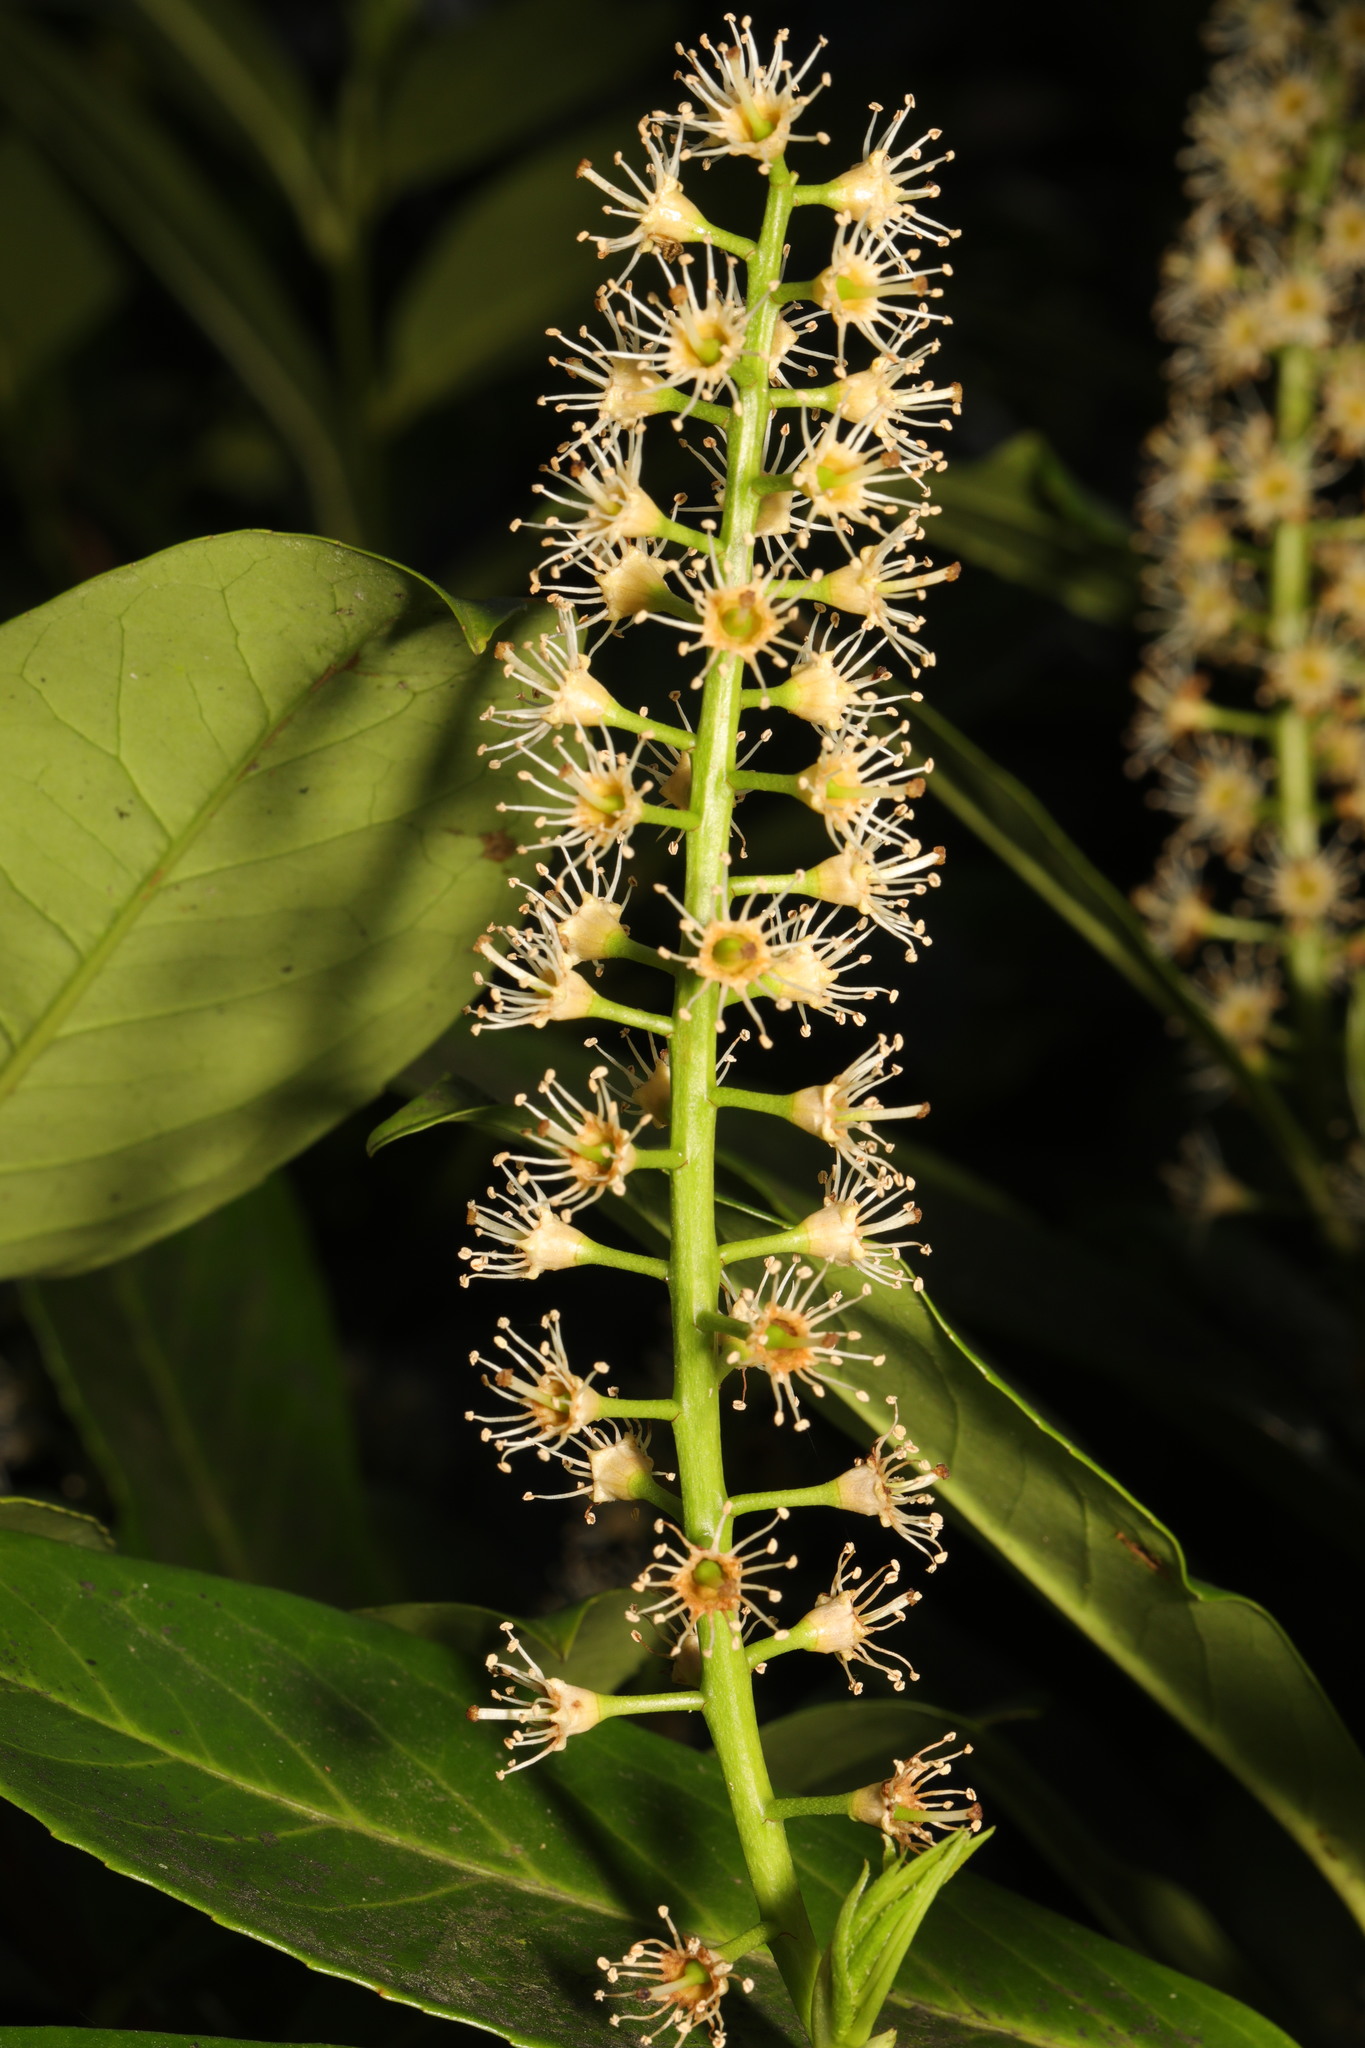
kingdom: Plantae
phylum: Tracheophyta
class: Magnoliopsida
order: Rosales
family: Rosaceae
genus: Prunus
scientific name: Prunus laurocerasus
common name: Cherry laurel
